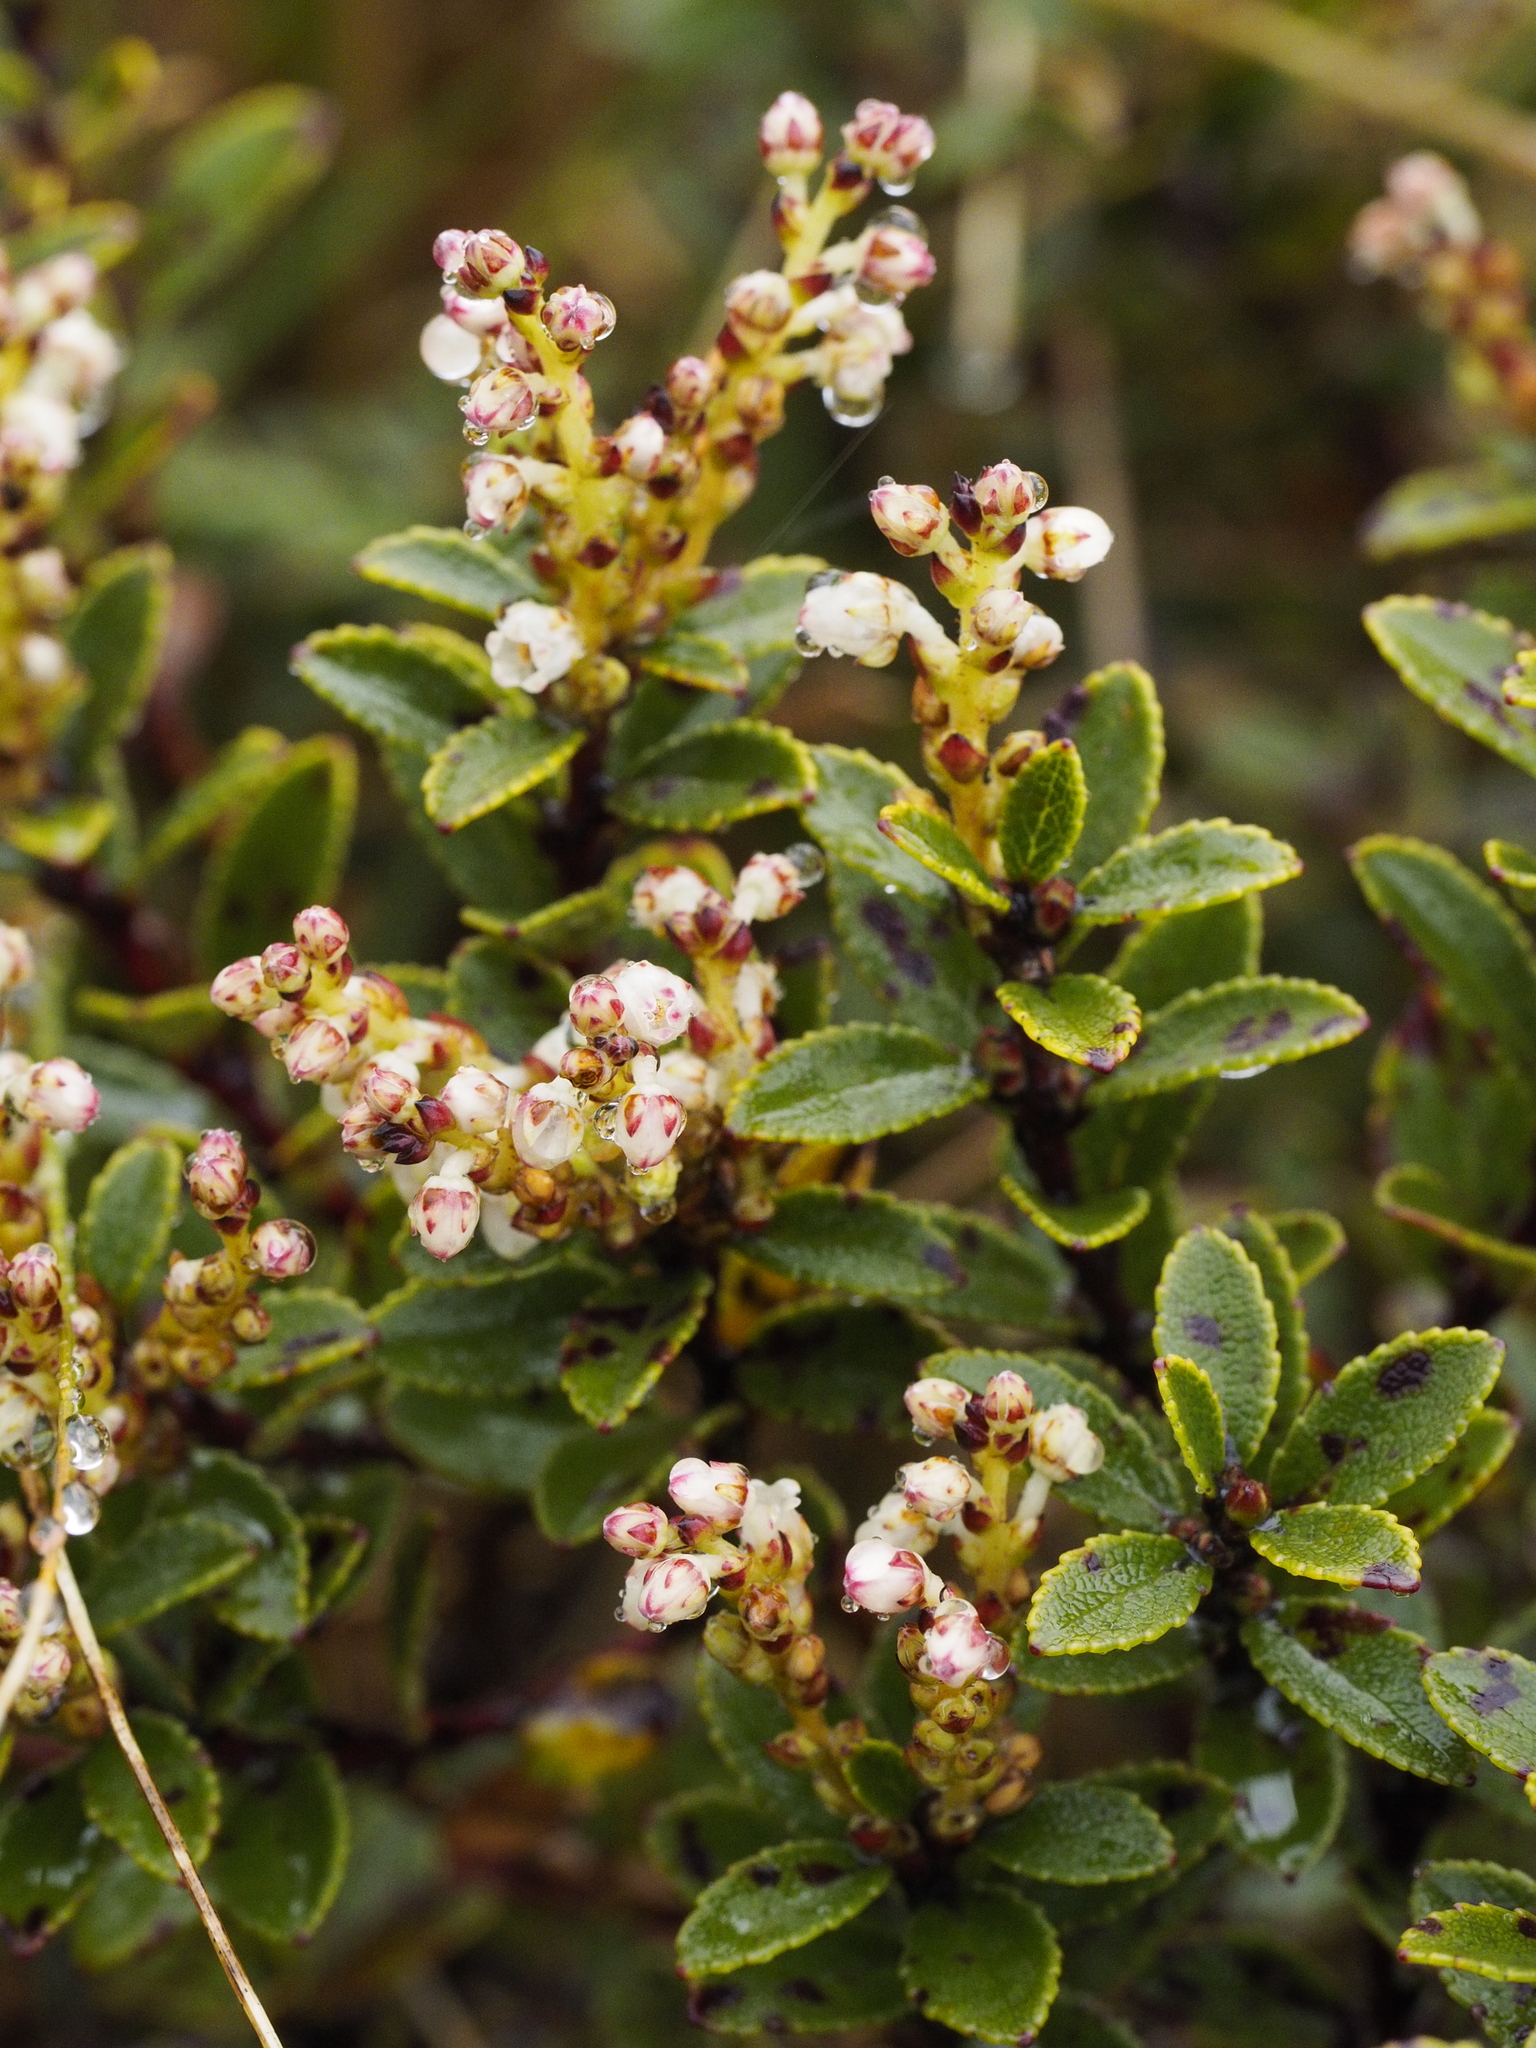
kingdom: Plantae
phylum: Tracheophyta
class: Magnoliopsida
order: Ericales
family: Ericaceae
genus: Gaultheria
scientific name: Gaultheria crassa
